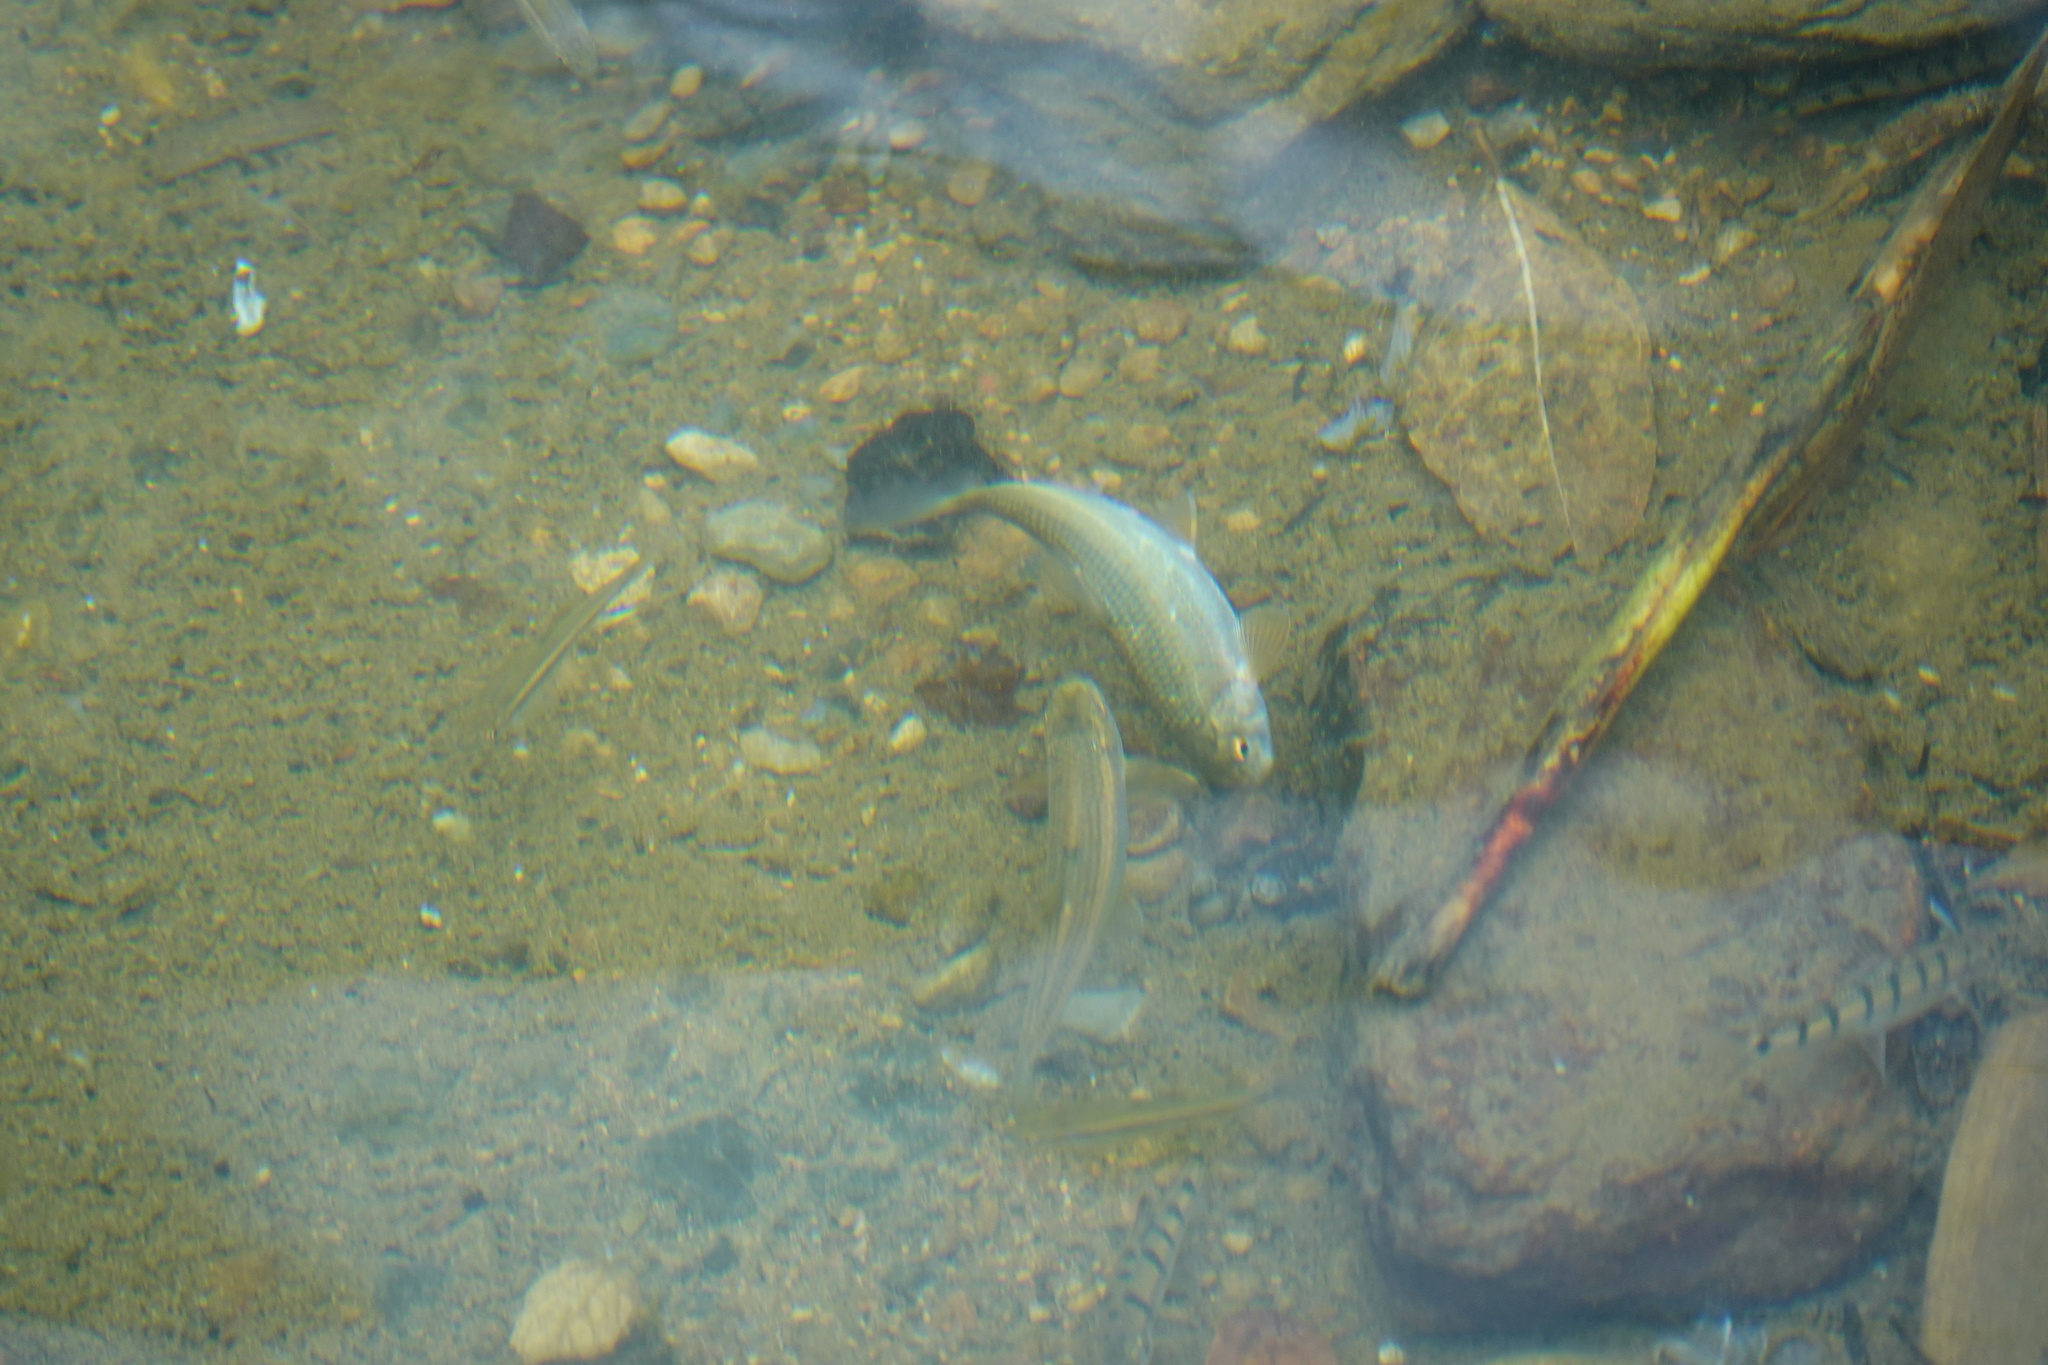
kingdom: Animalia
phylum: Chordata
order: Cypriniformes
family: Cyprinidae
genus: Onychostoma
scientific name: Onychostoma barbatulum
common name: Taiwan shoveljaw carp
